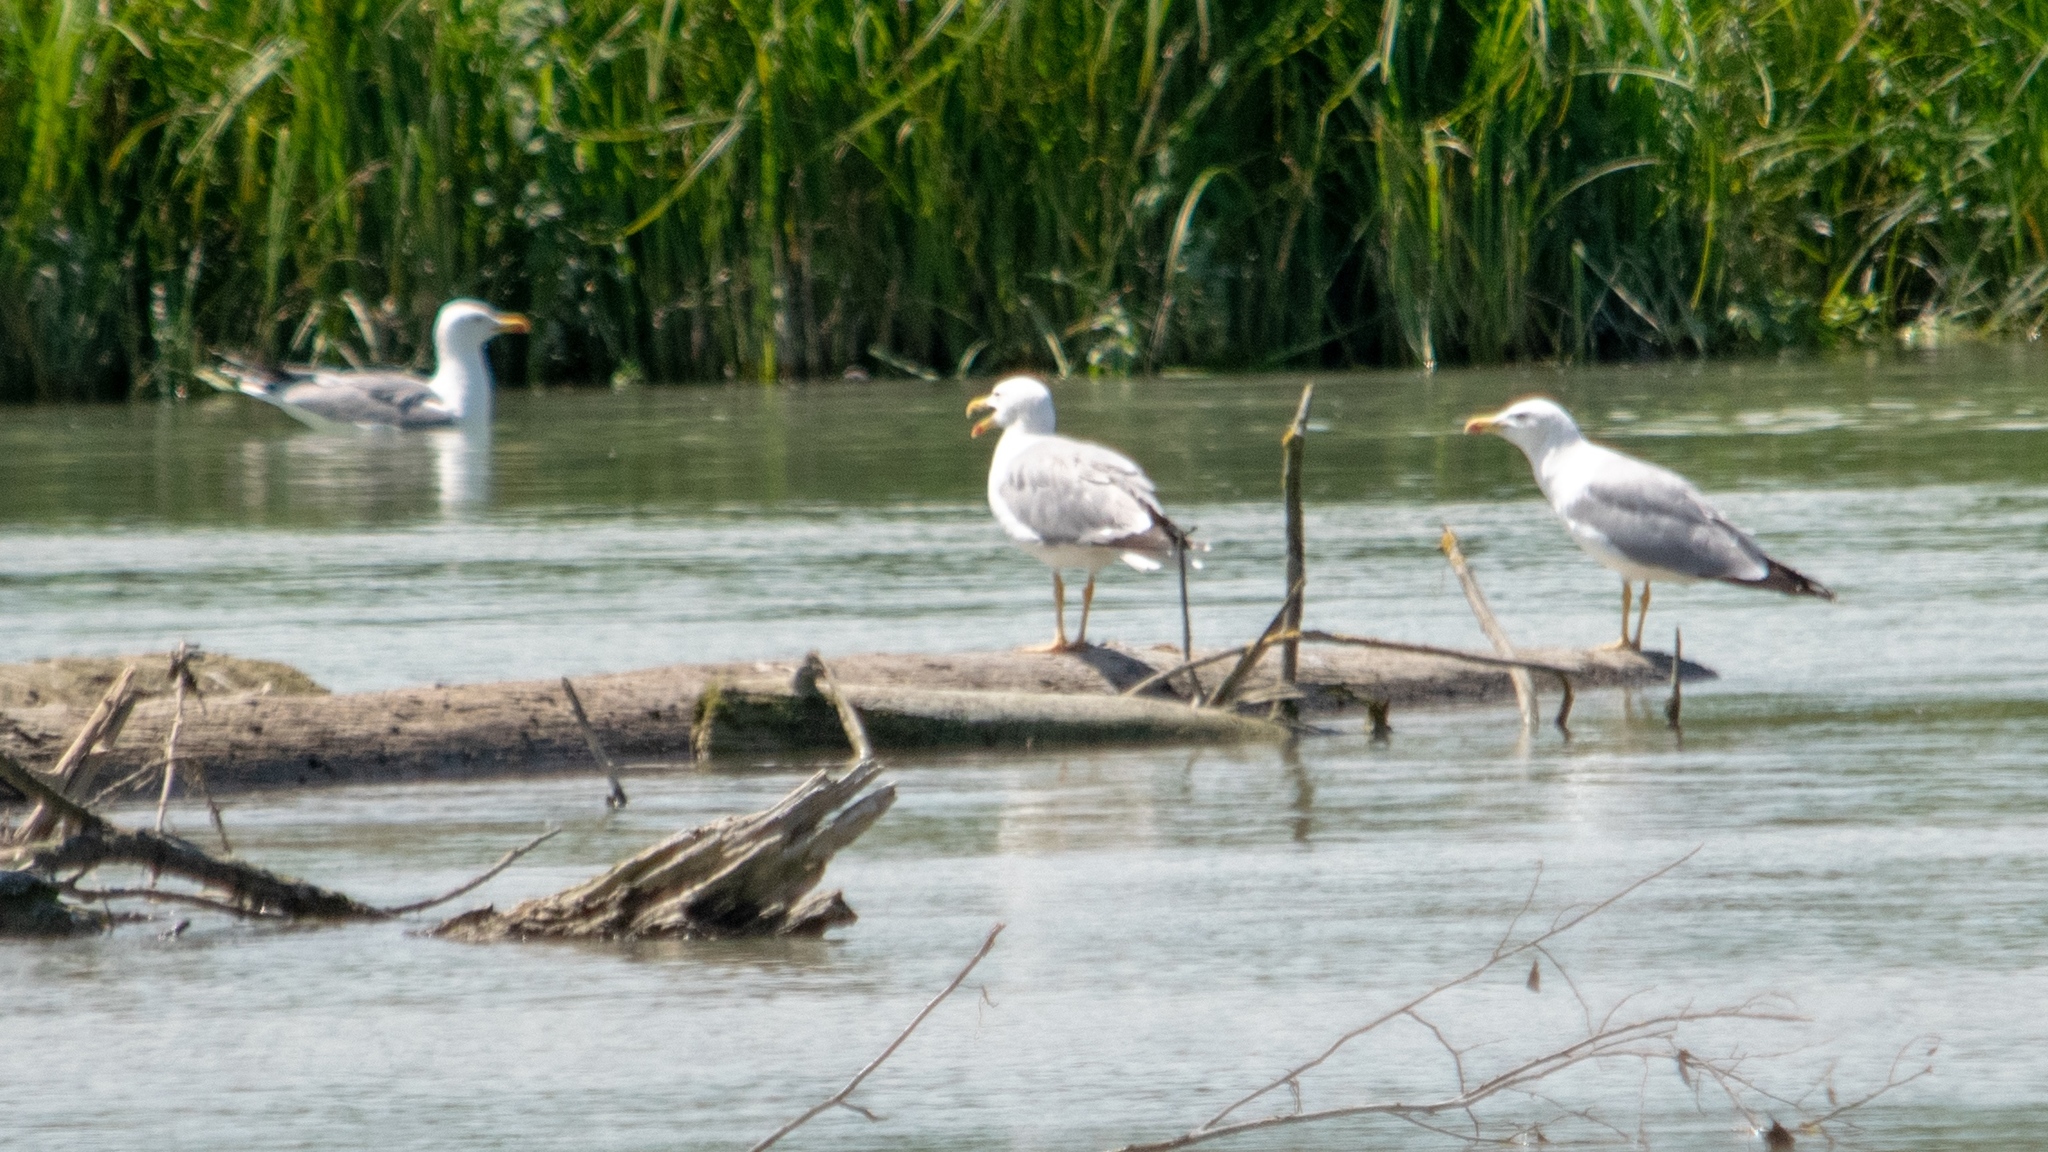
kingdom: Animalia
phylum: Chordata
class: Aves
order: Charadriiformes
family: Laridae
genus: Larus
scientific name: Larus michahellis
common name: Yellow-legged gull
